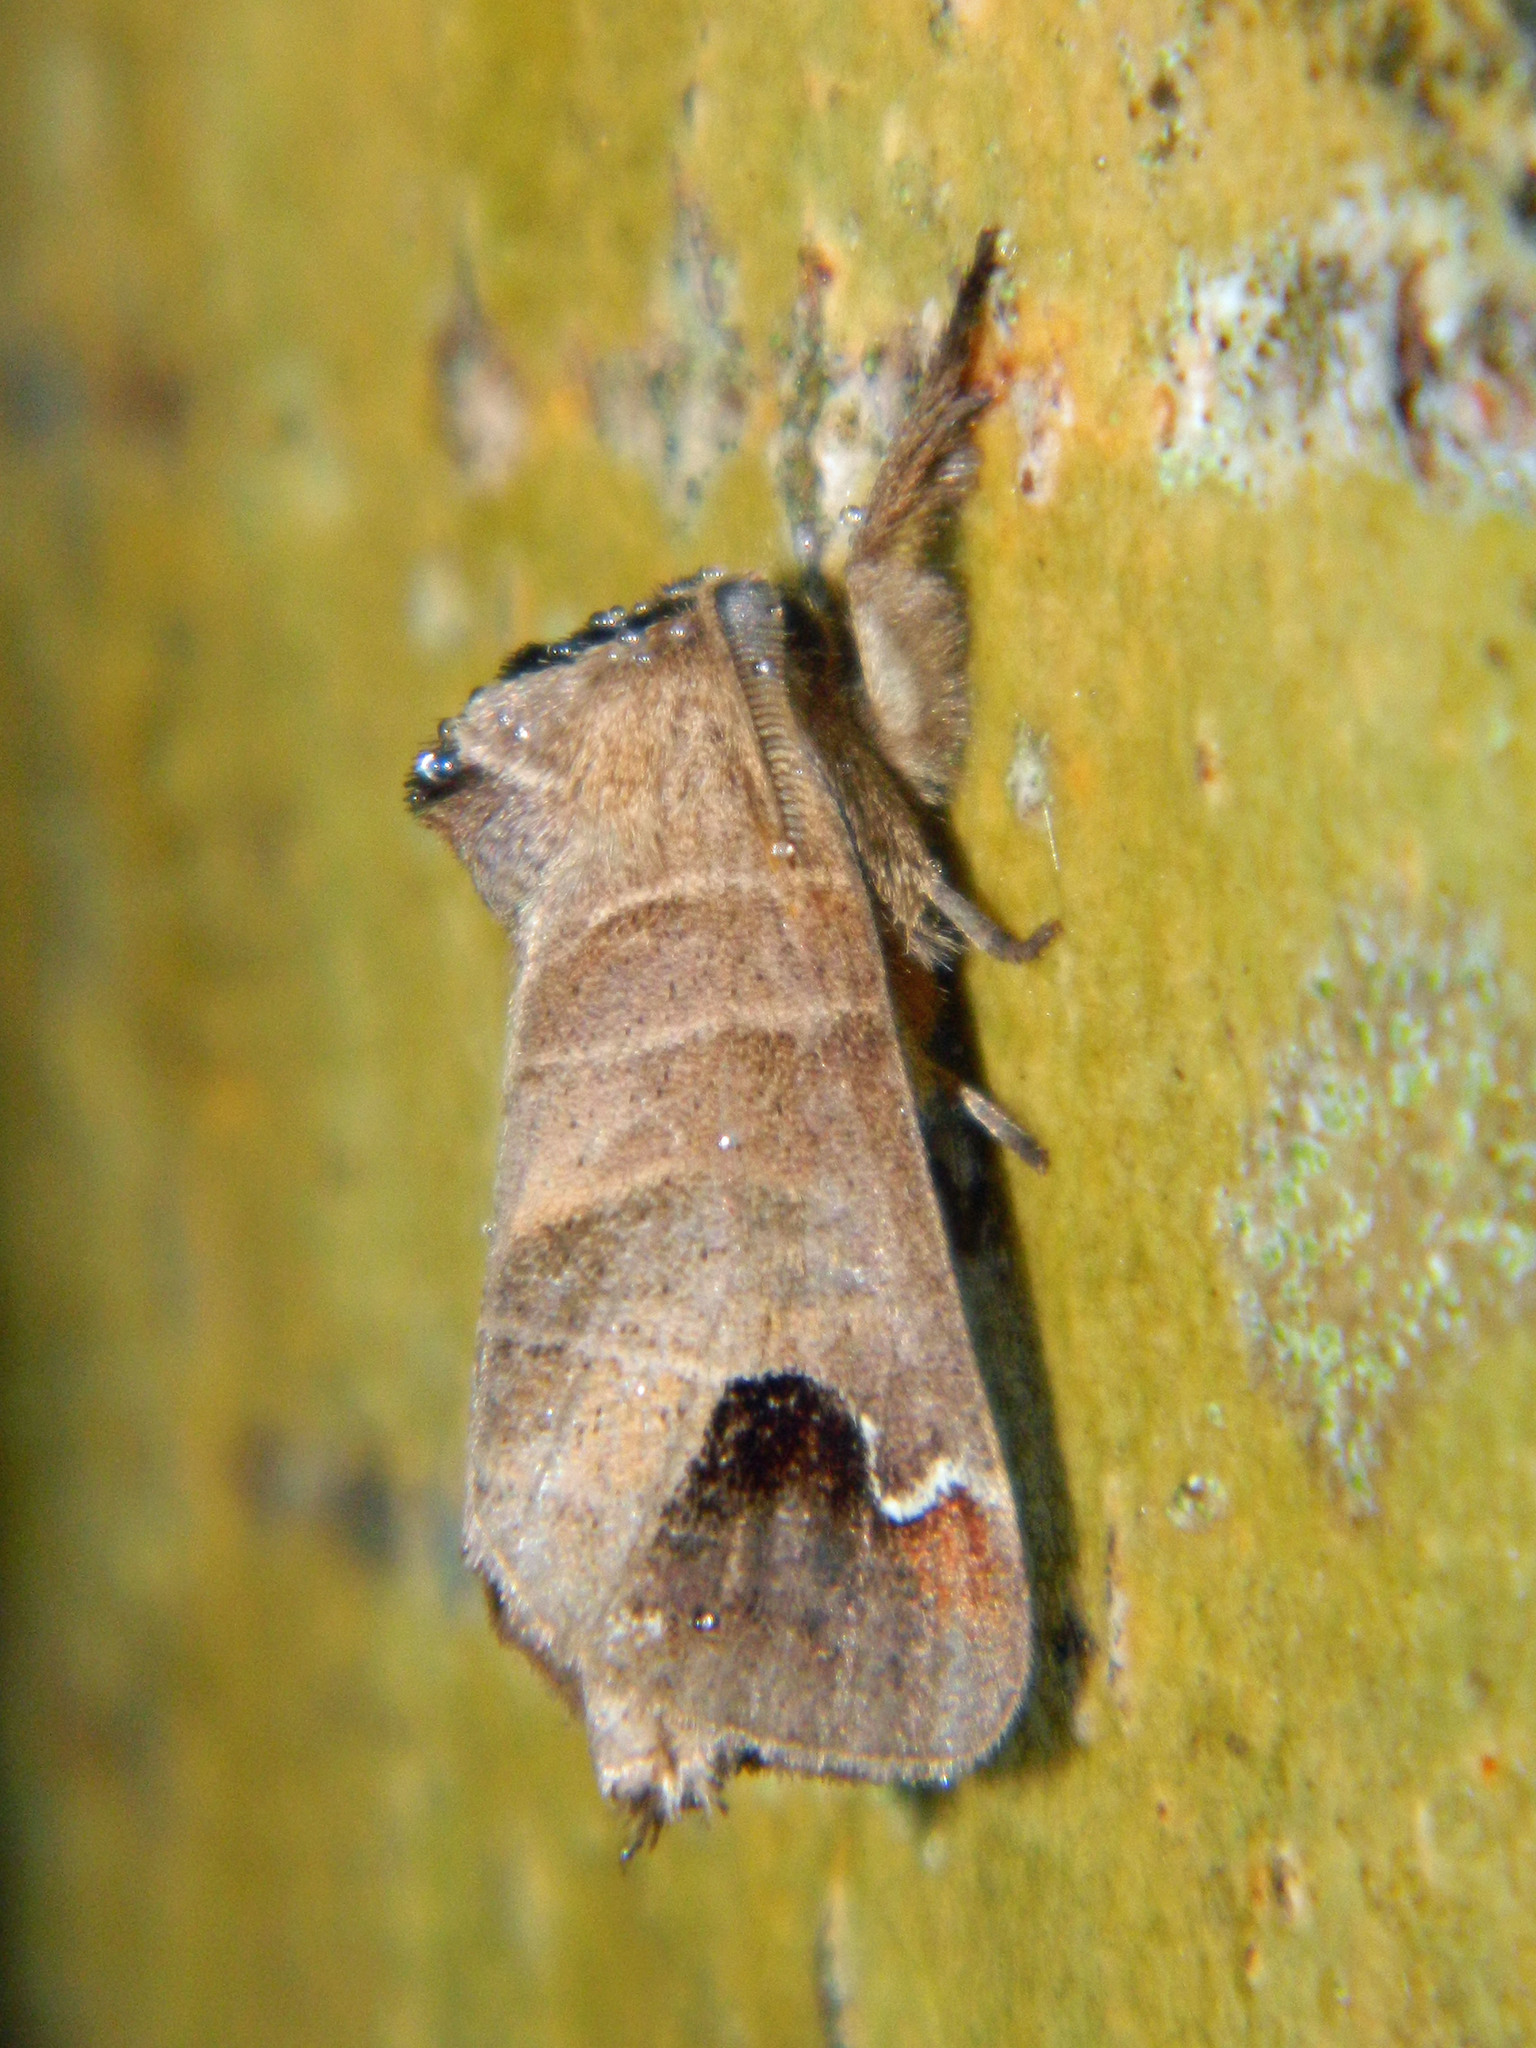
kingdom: Animalia
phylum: Arthropoda
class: Insecta
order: Lepidoptera
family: Notodontidae
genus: Clostera
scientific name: Clostera albosigma
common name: Sigmoid prominent
